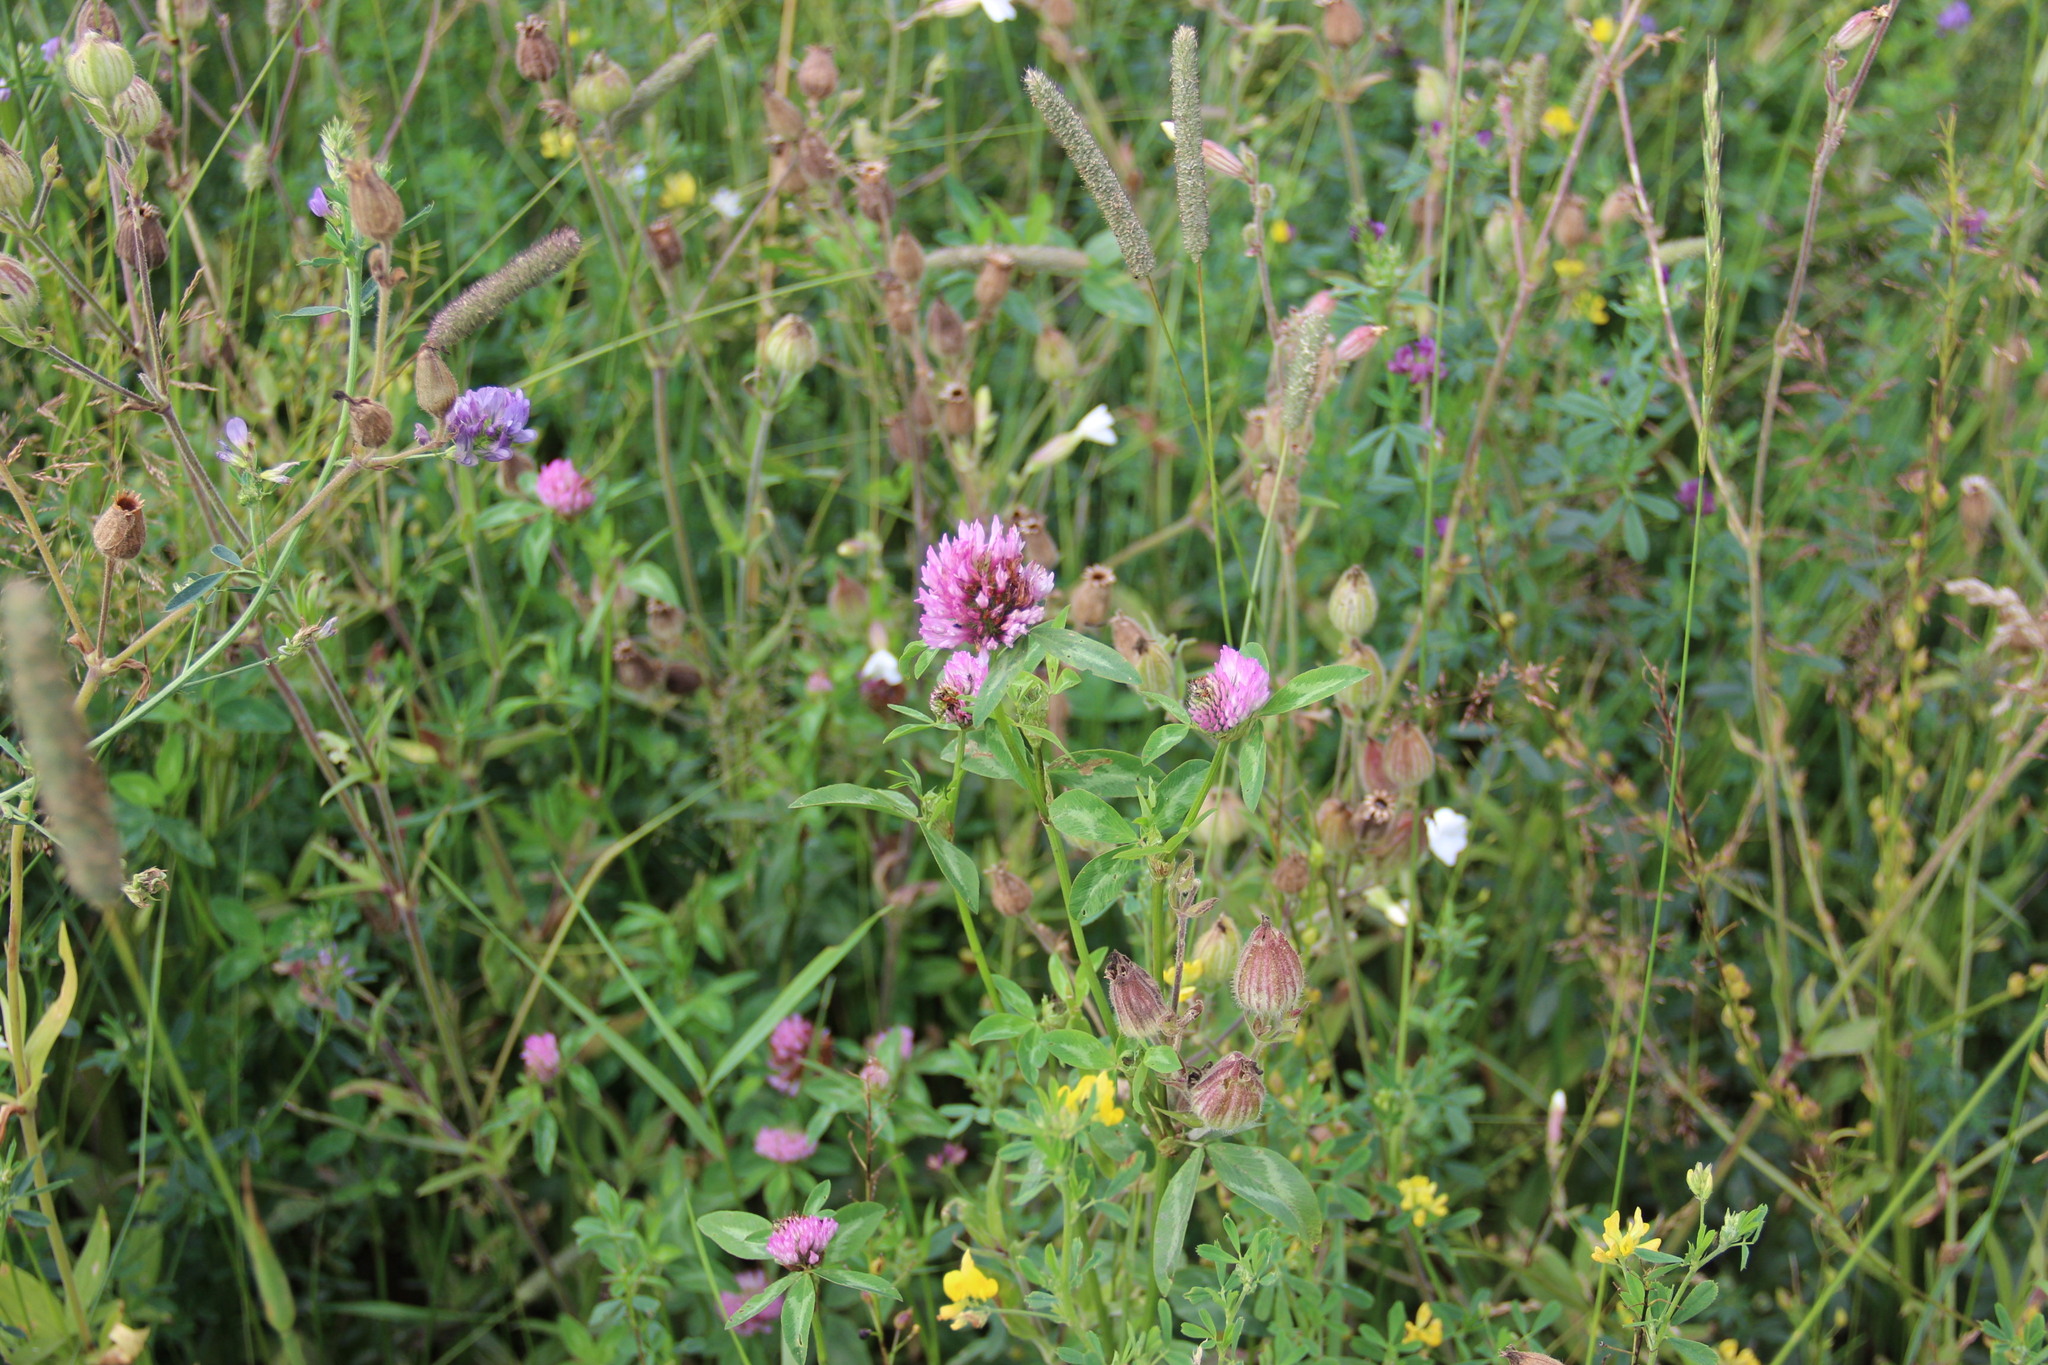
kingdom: Plantae
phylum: Tracheophyta
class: Magnoliopsida
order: Fabales
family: Fabaceae
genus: Trifolium
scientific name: Trifolium pratense
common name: Red clover
